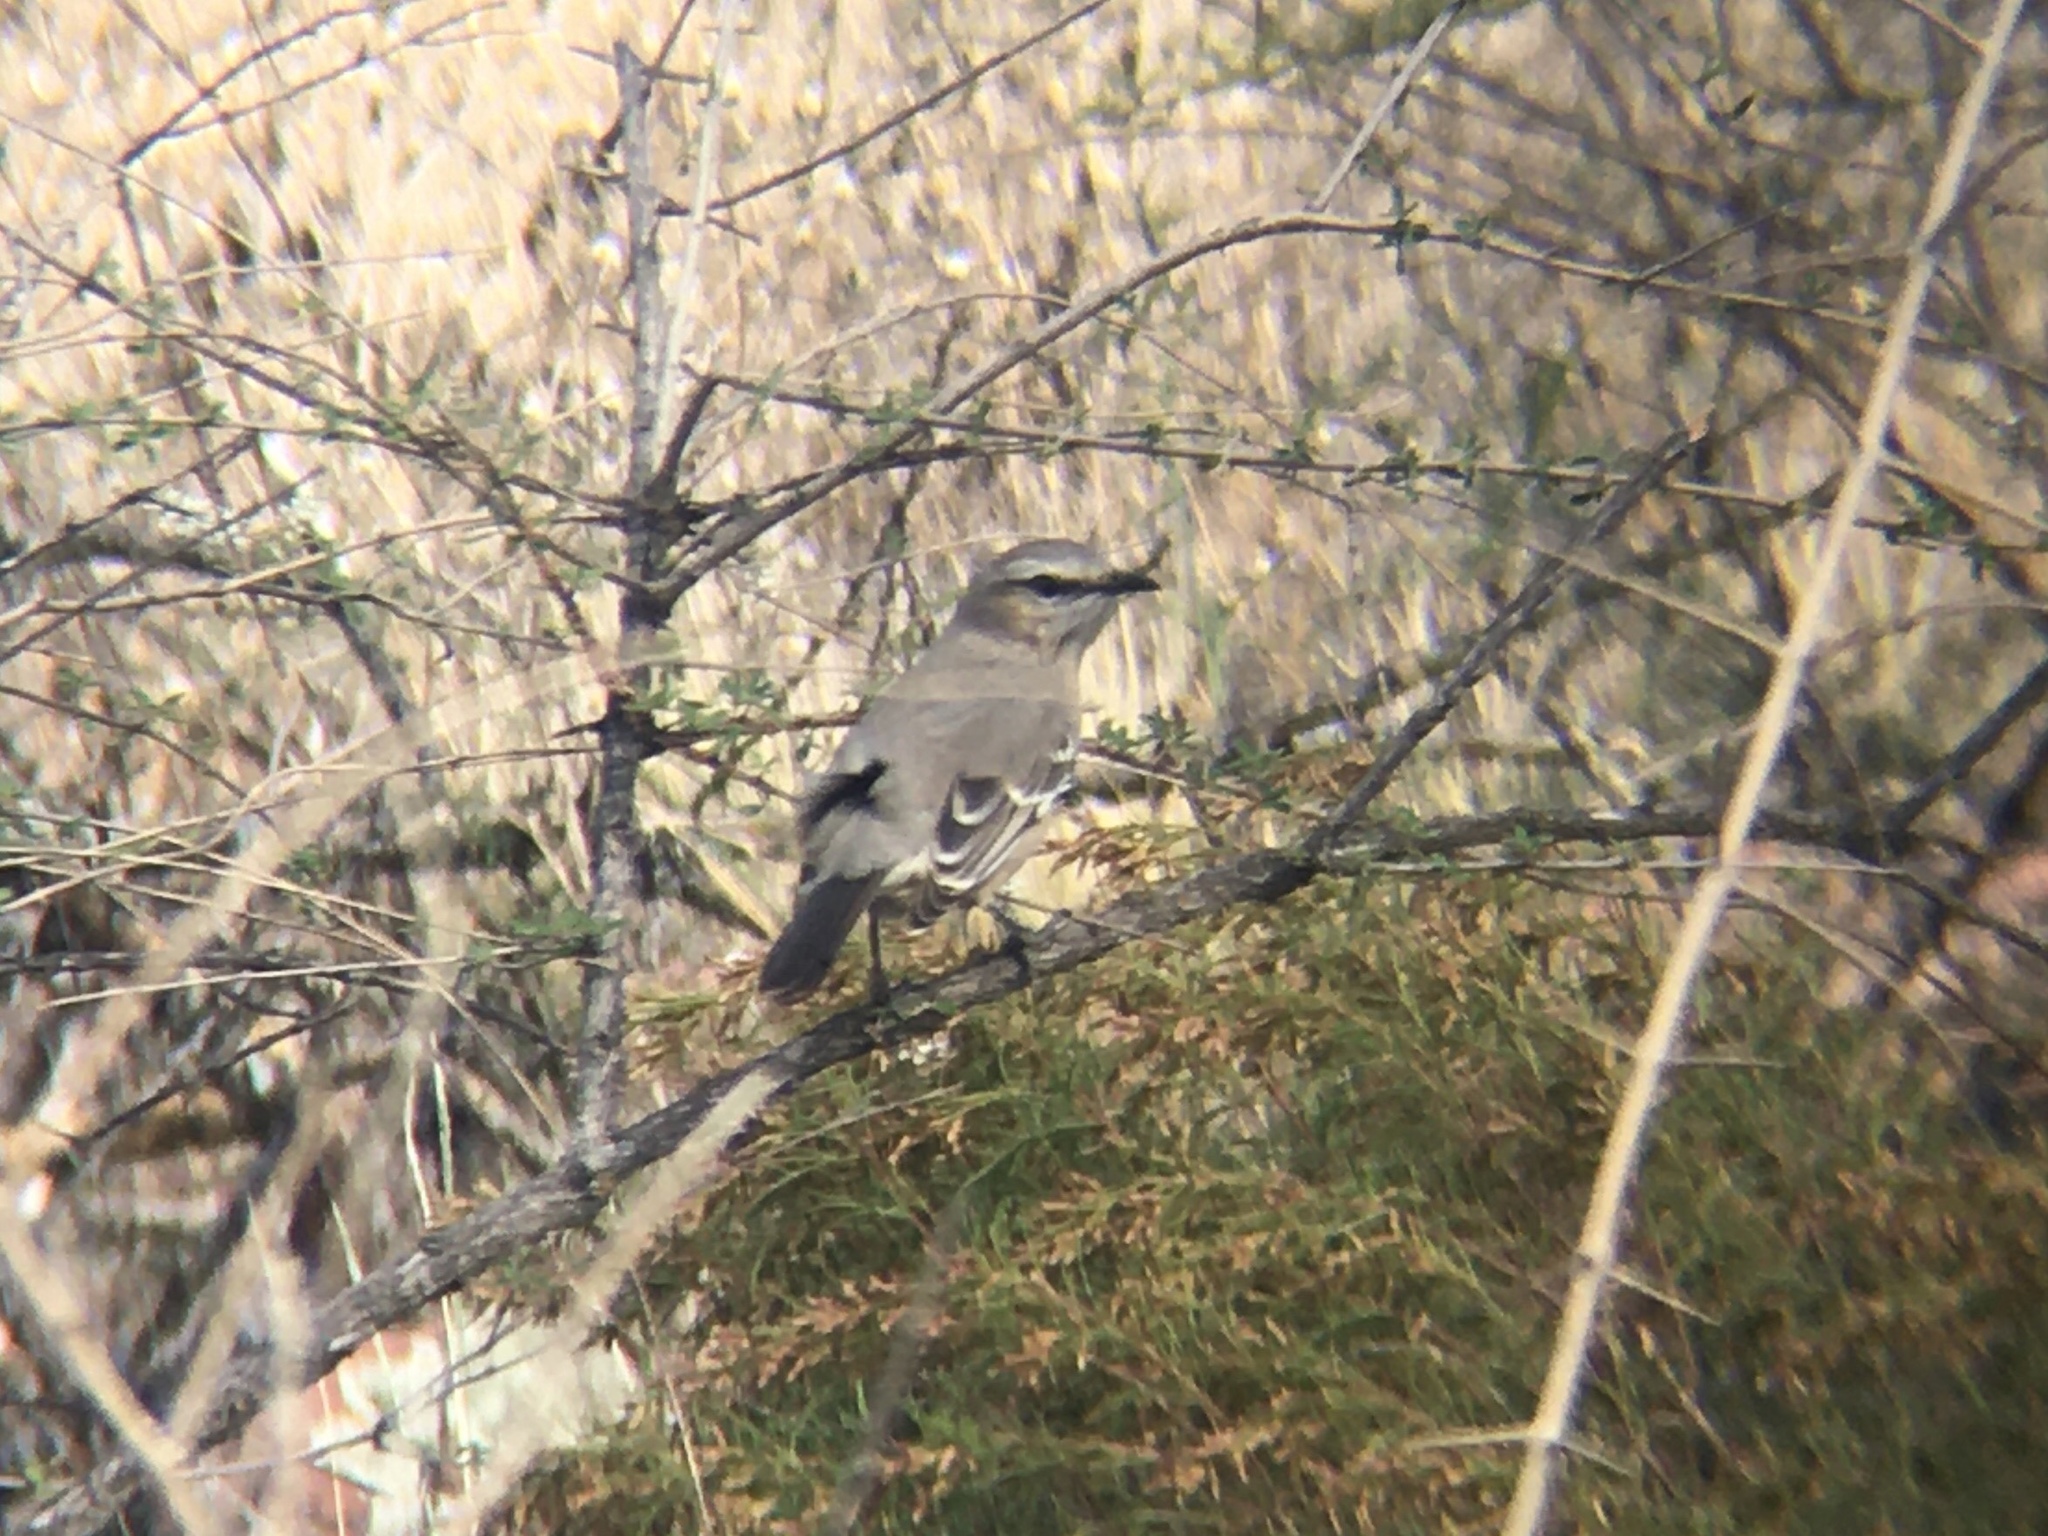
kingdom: Animalia
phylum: Chordata
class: Aves
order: Passeriformes
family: Mimidae
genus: Mimus
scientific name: Mimus patagonicus
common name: Patagonian mockingbird
